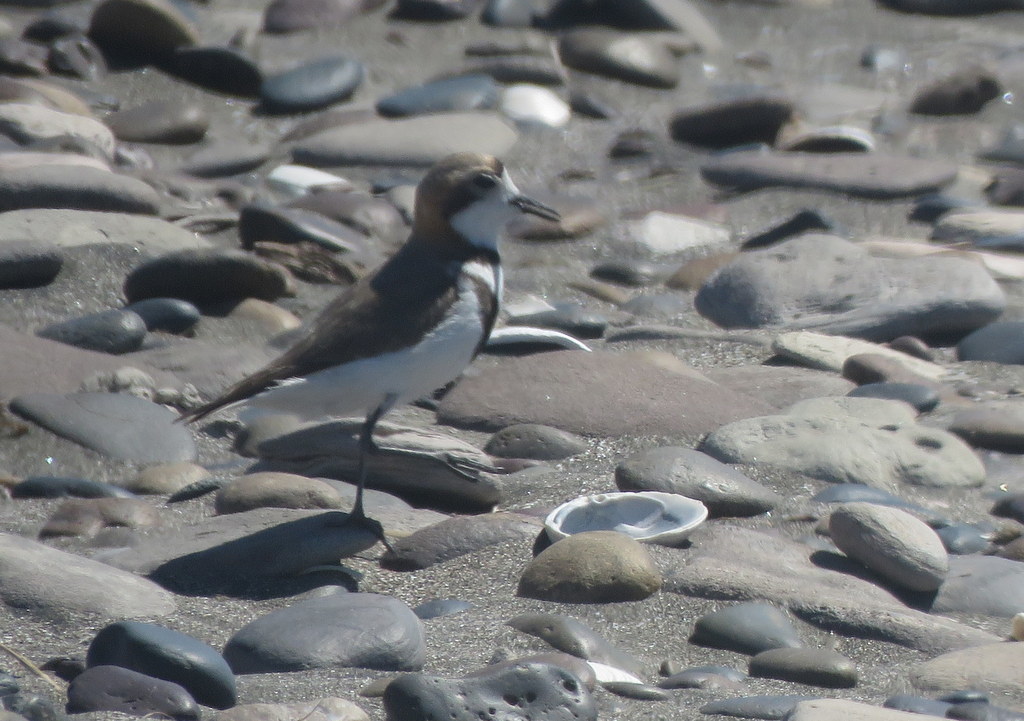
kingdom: Animalia
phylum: Chordata
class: Aves
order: Charadriiformes
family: Charadriidae
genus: Anarhynchus
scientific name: Anarhynchus
